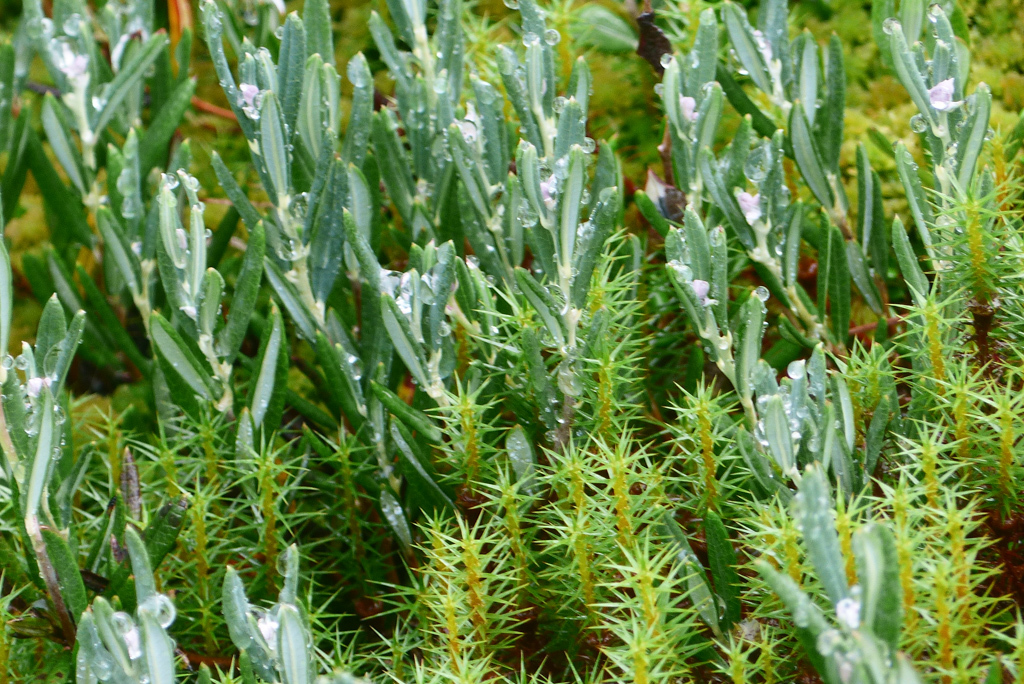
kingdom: Plantae
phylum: Tracheophyta
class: Magnoliopsida
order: Ericales
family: Ericaceae
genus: Andromeda
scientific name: Andromeda polifolia
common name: Bog-rosemary
